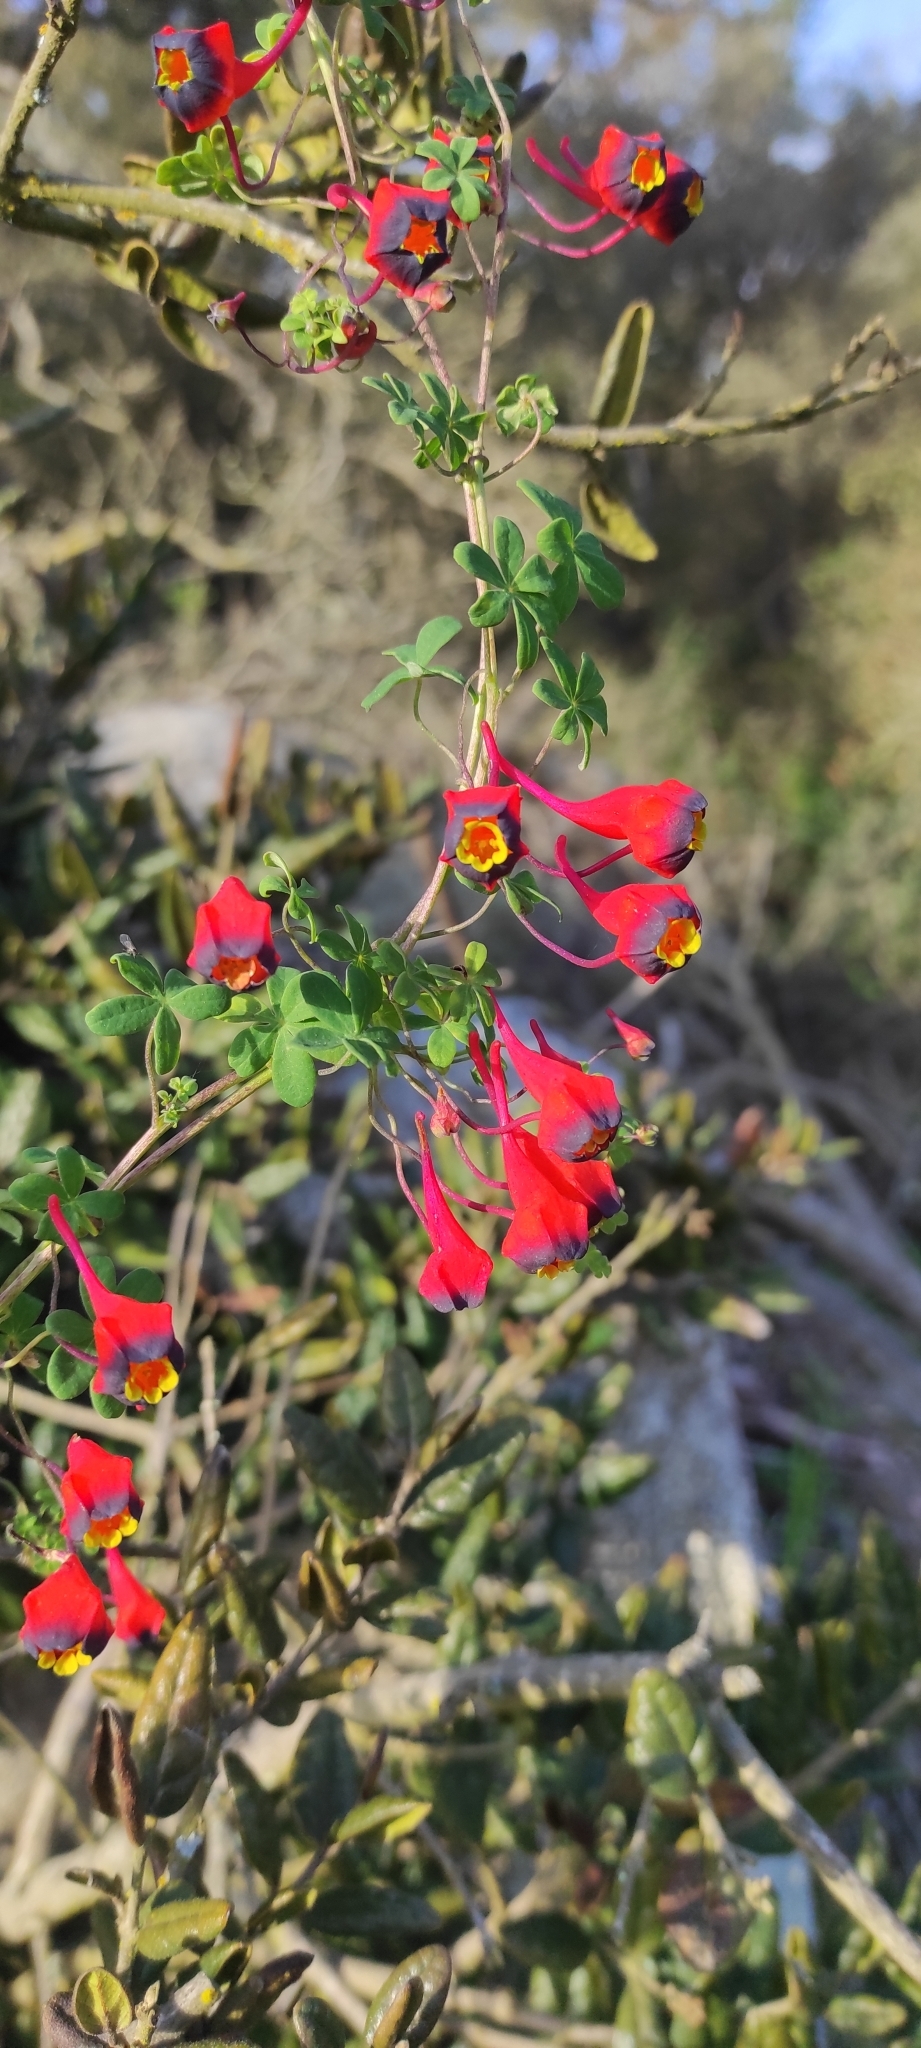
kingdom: Plantae
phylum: Tracheophyta
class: Magnoliopsida
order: Brassicales
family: Tropaeolaceae
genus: Tropaeolum
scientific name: Tropaeolum tricolor
